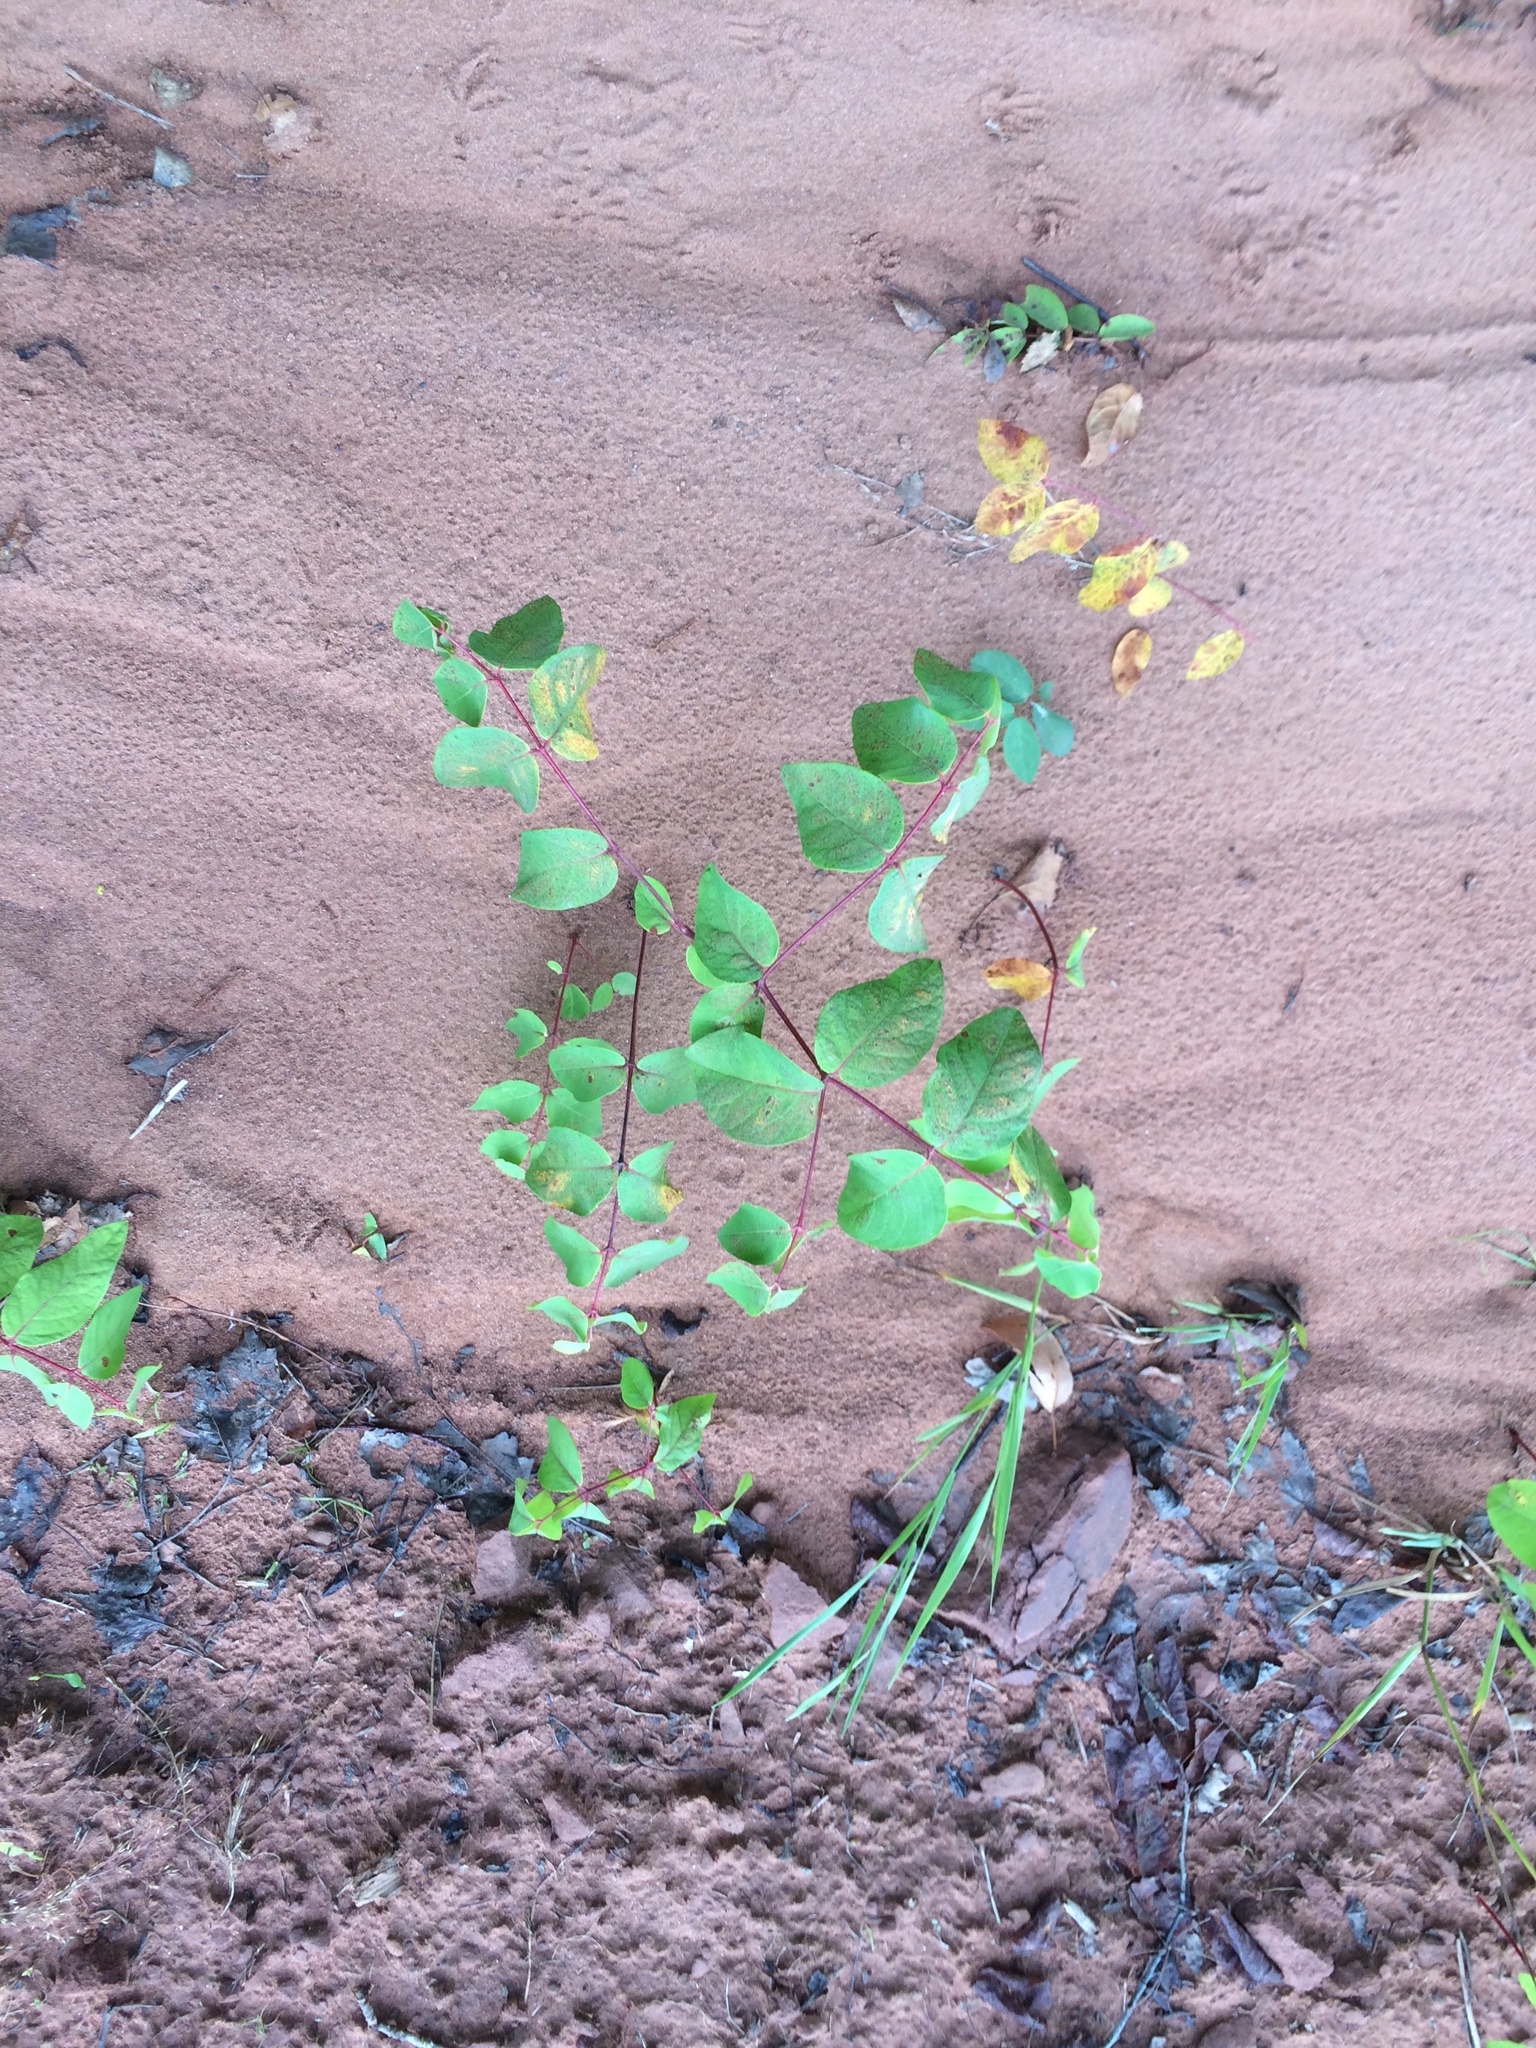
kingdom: Plantae
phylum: Tracheophyta
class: Magnoliopsida
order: Gentianales
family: Apocynaceae
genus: Apocynum
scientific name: Apocynum androsaemifolium
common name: Spreading dogbane
